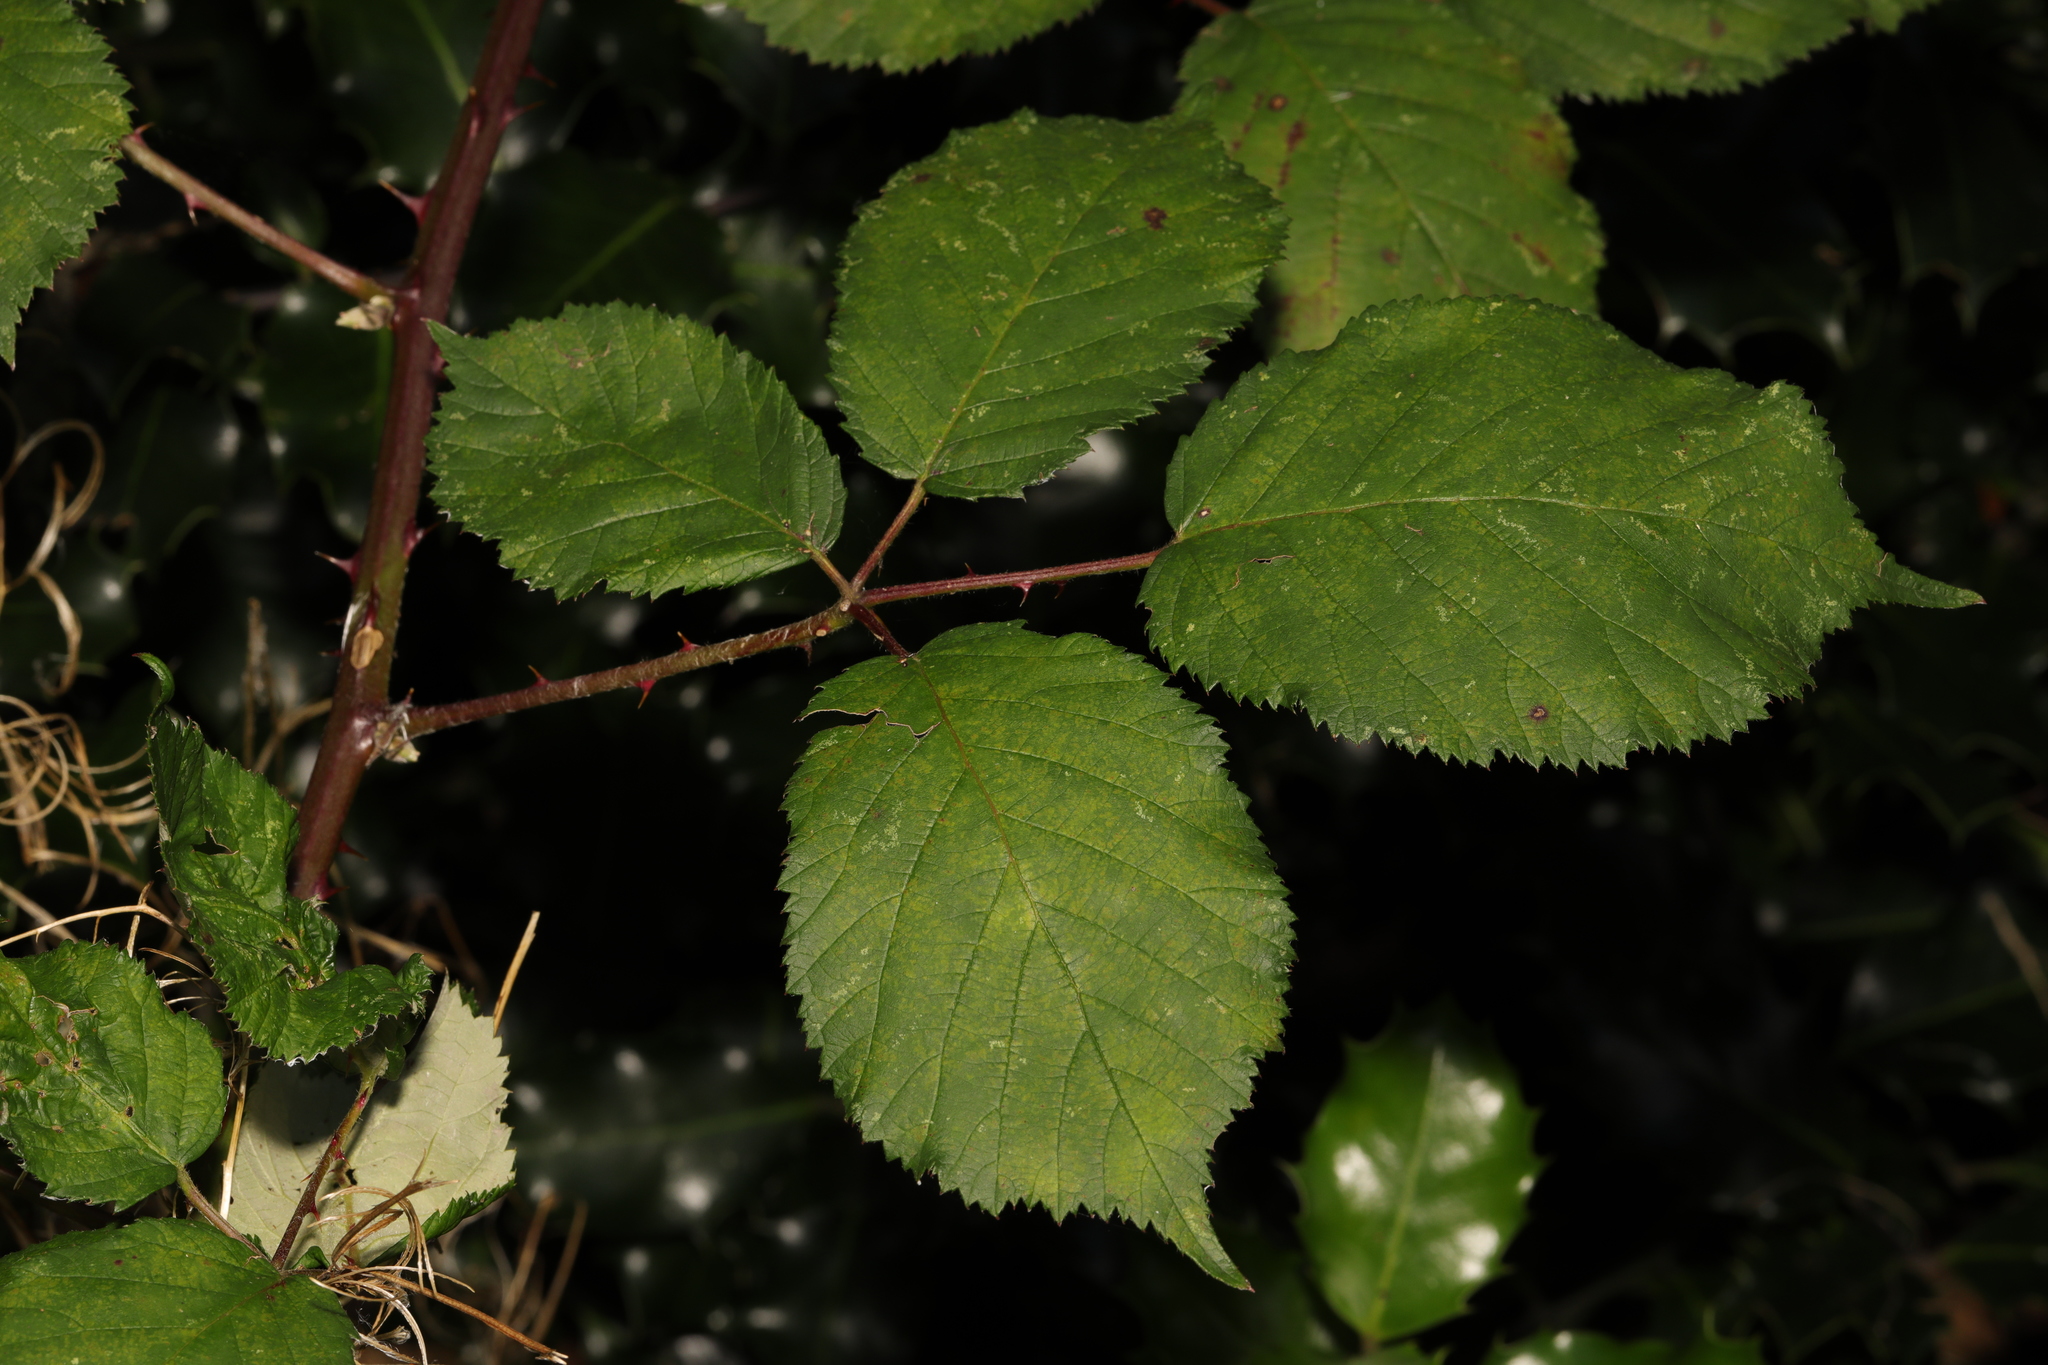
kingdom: Plantae
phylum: Tracheophyta
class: Magnoliopsida
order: Rosales
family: Rosaceae
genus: Rubus
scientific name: Rubus armeniacus
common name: Himalayan blackberry
